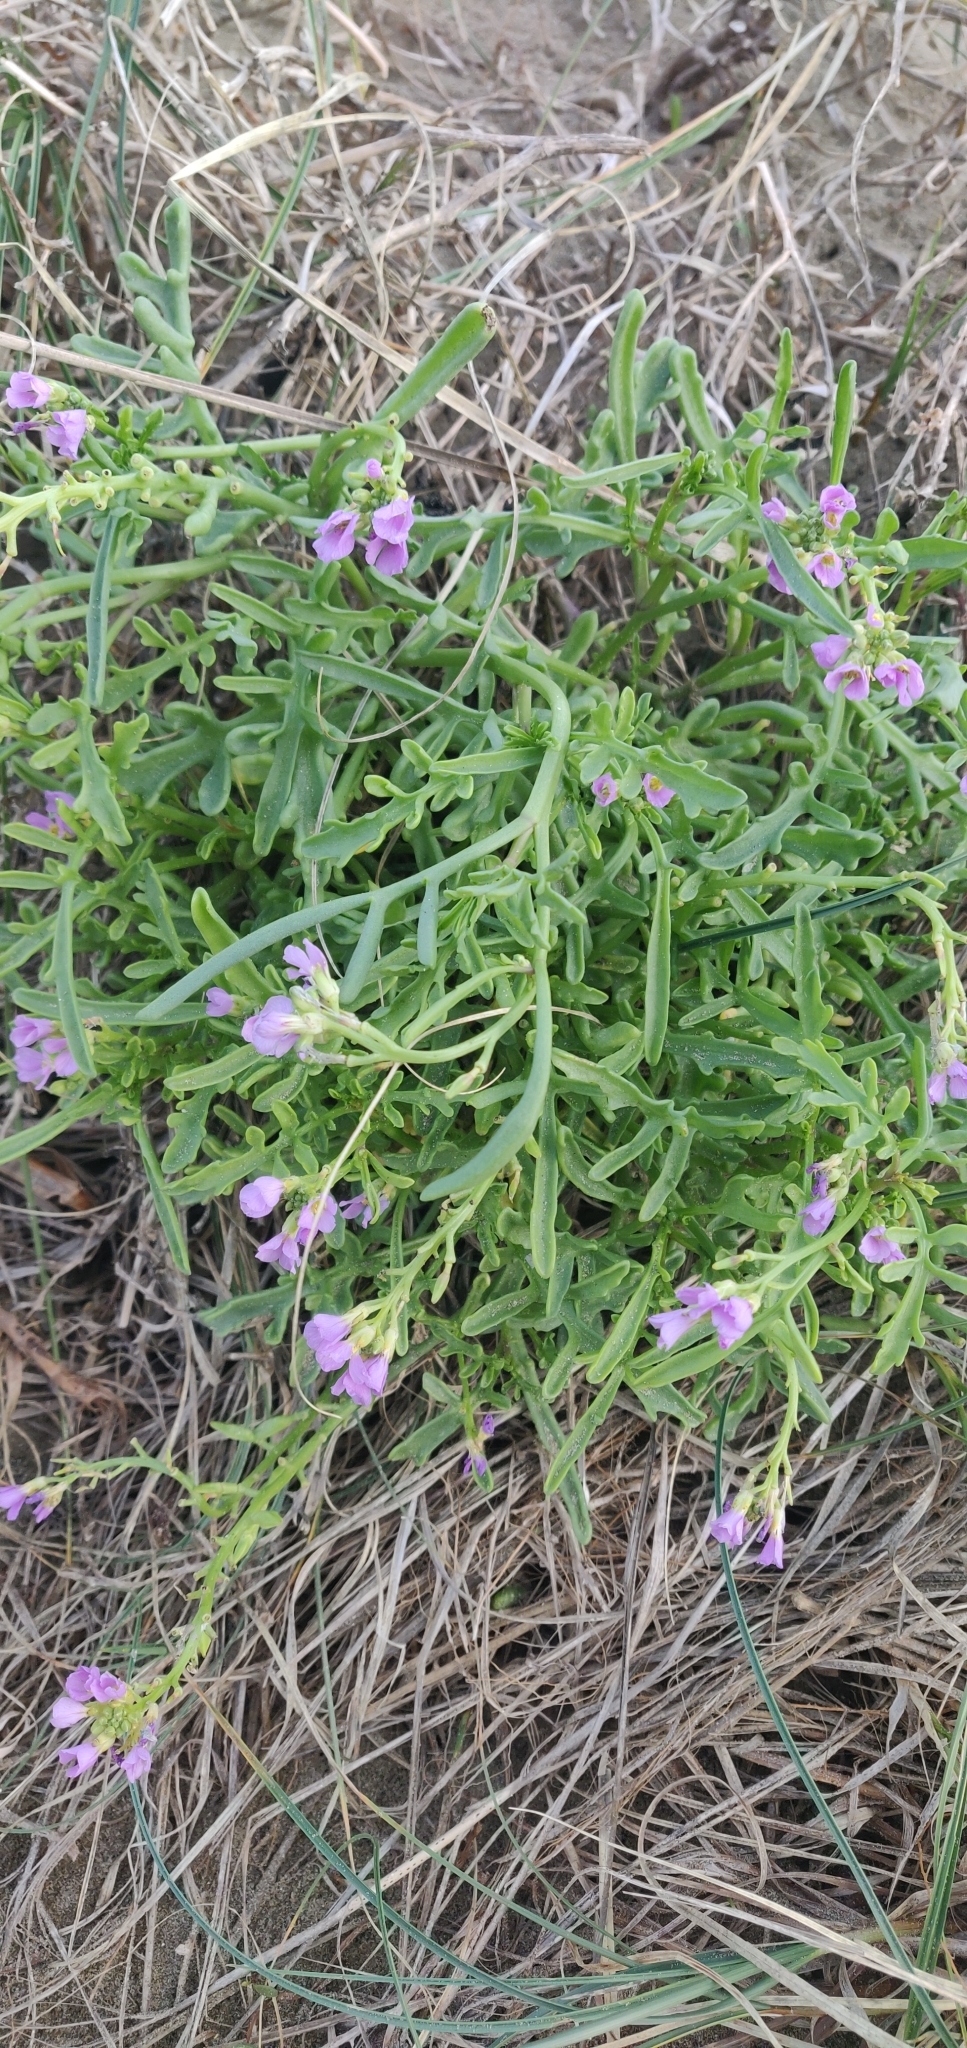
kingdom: Plantae
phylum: Tracheophyta
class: Magnoliopsida
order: Brassicales
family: Brassicaceae
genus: Cakile
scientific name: Cakile maritima
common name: Sea rocket
